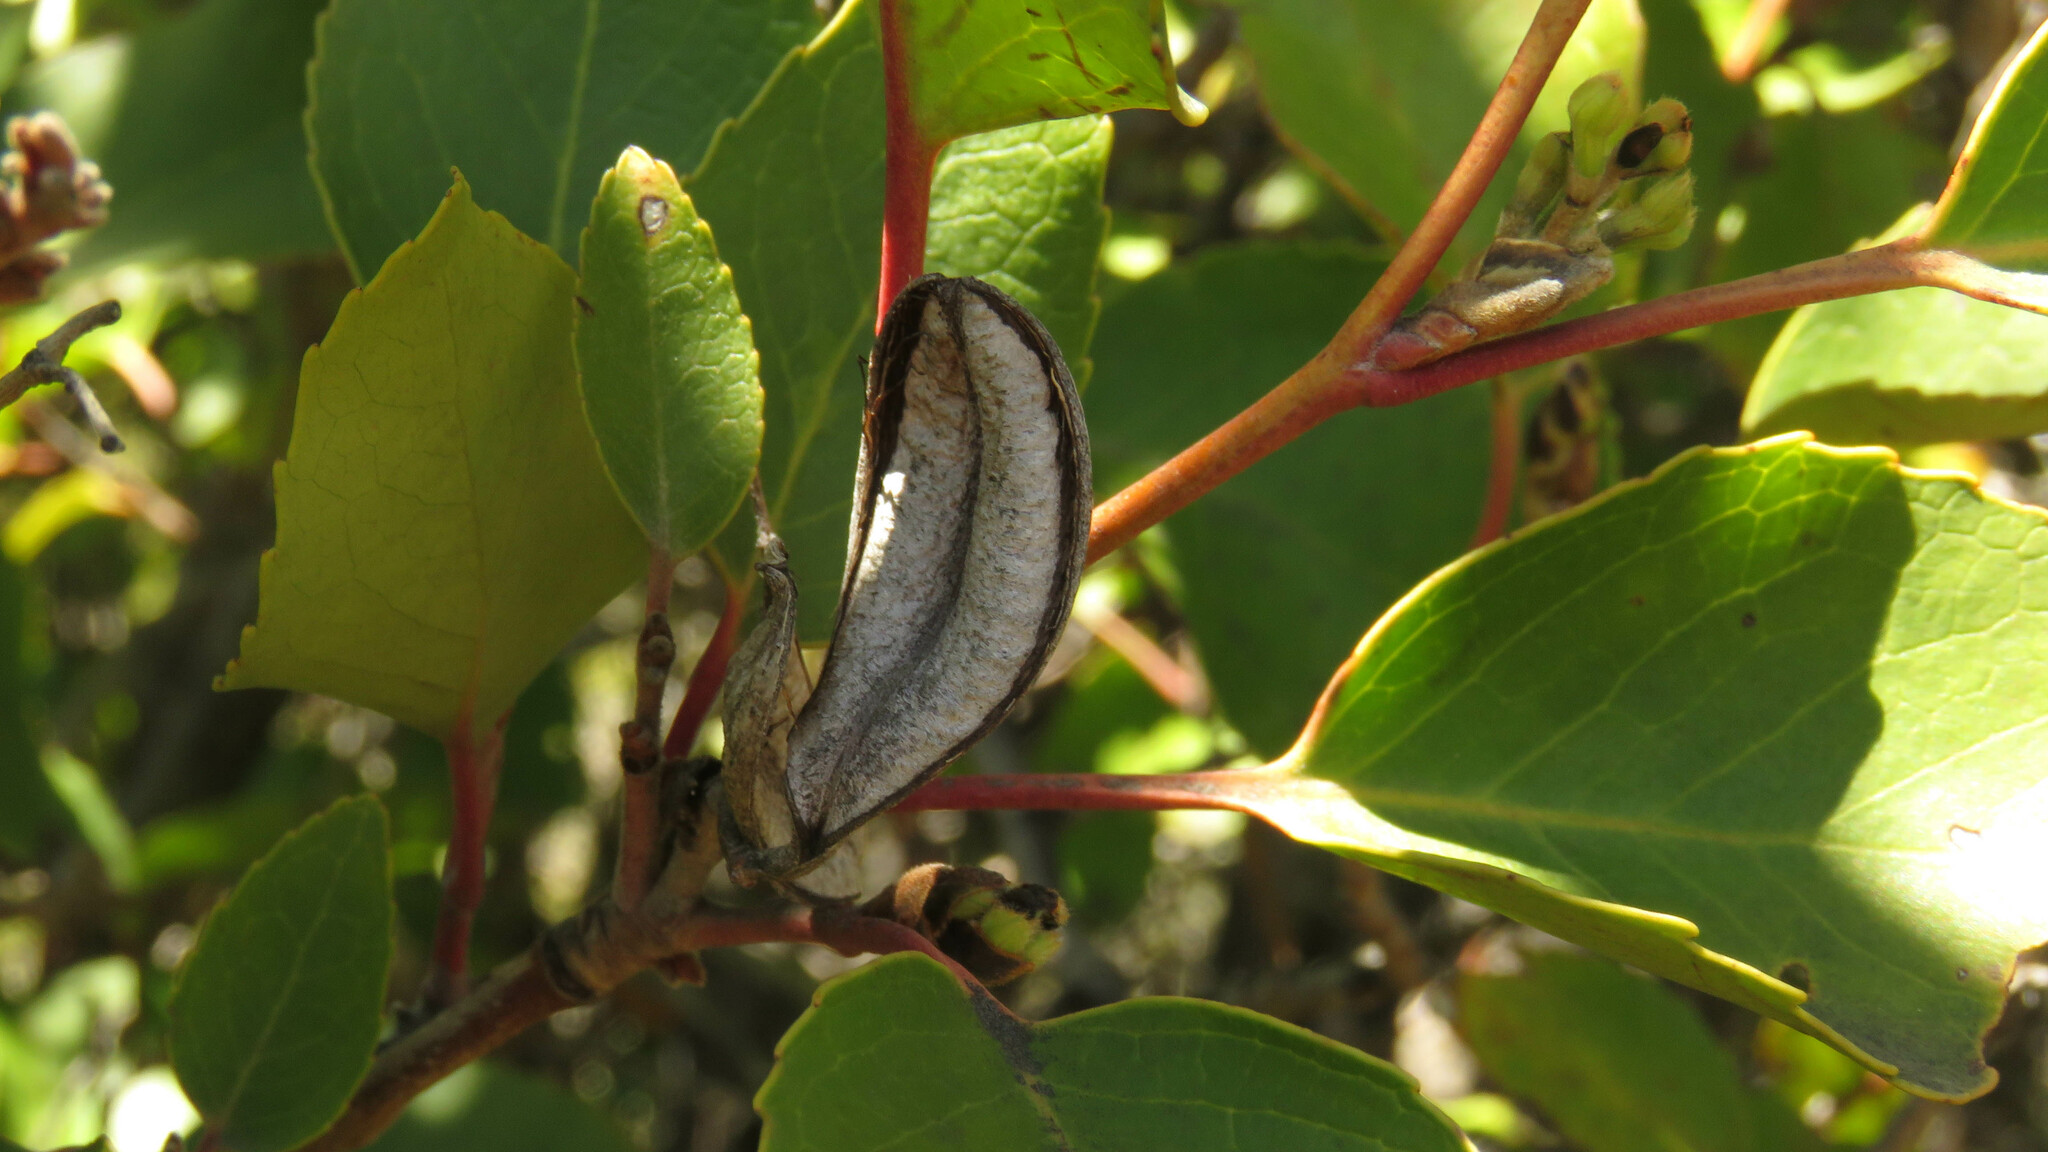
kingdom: Plantae
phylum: Tracheophyta
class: Magnoliopsida
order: Proteales
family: Proteaceae
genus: Lomatia
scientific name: Lomatia hirsuta
